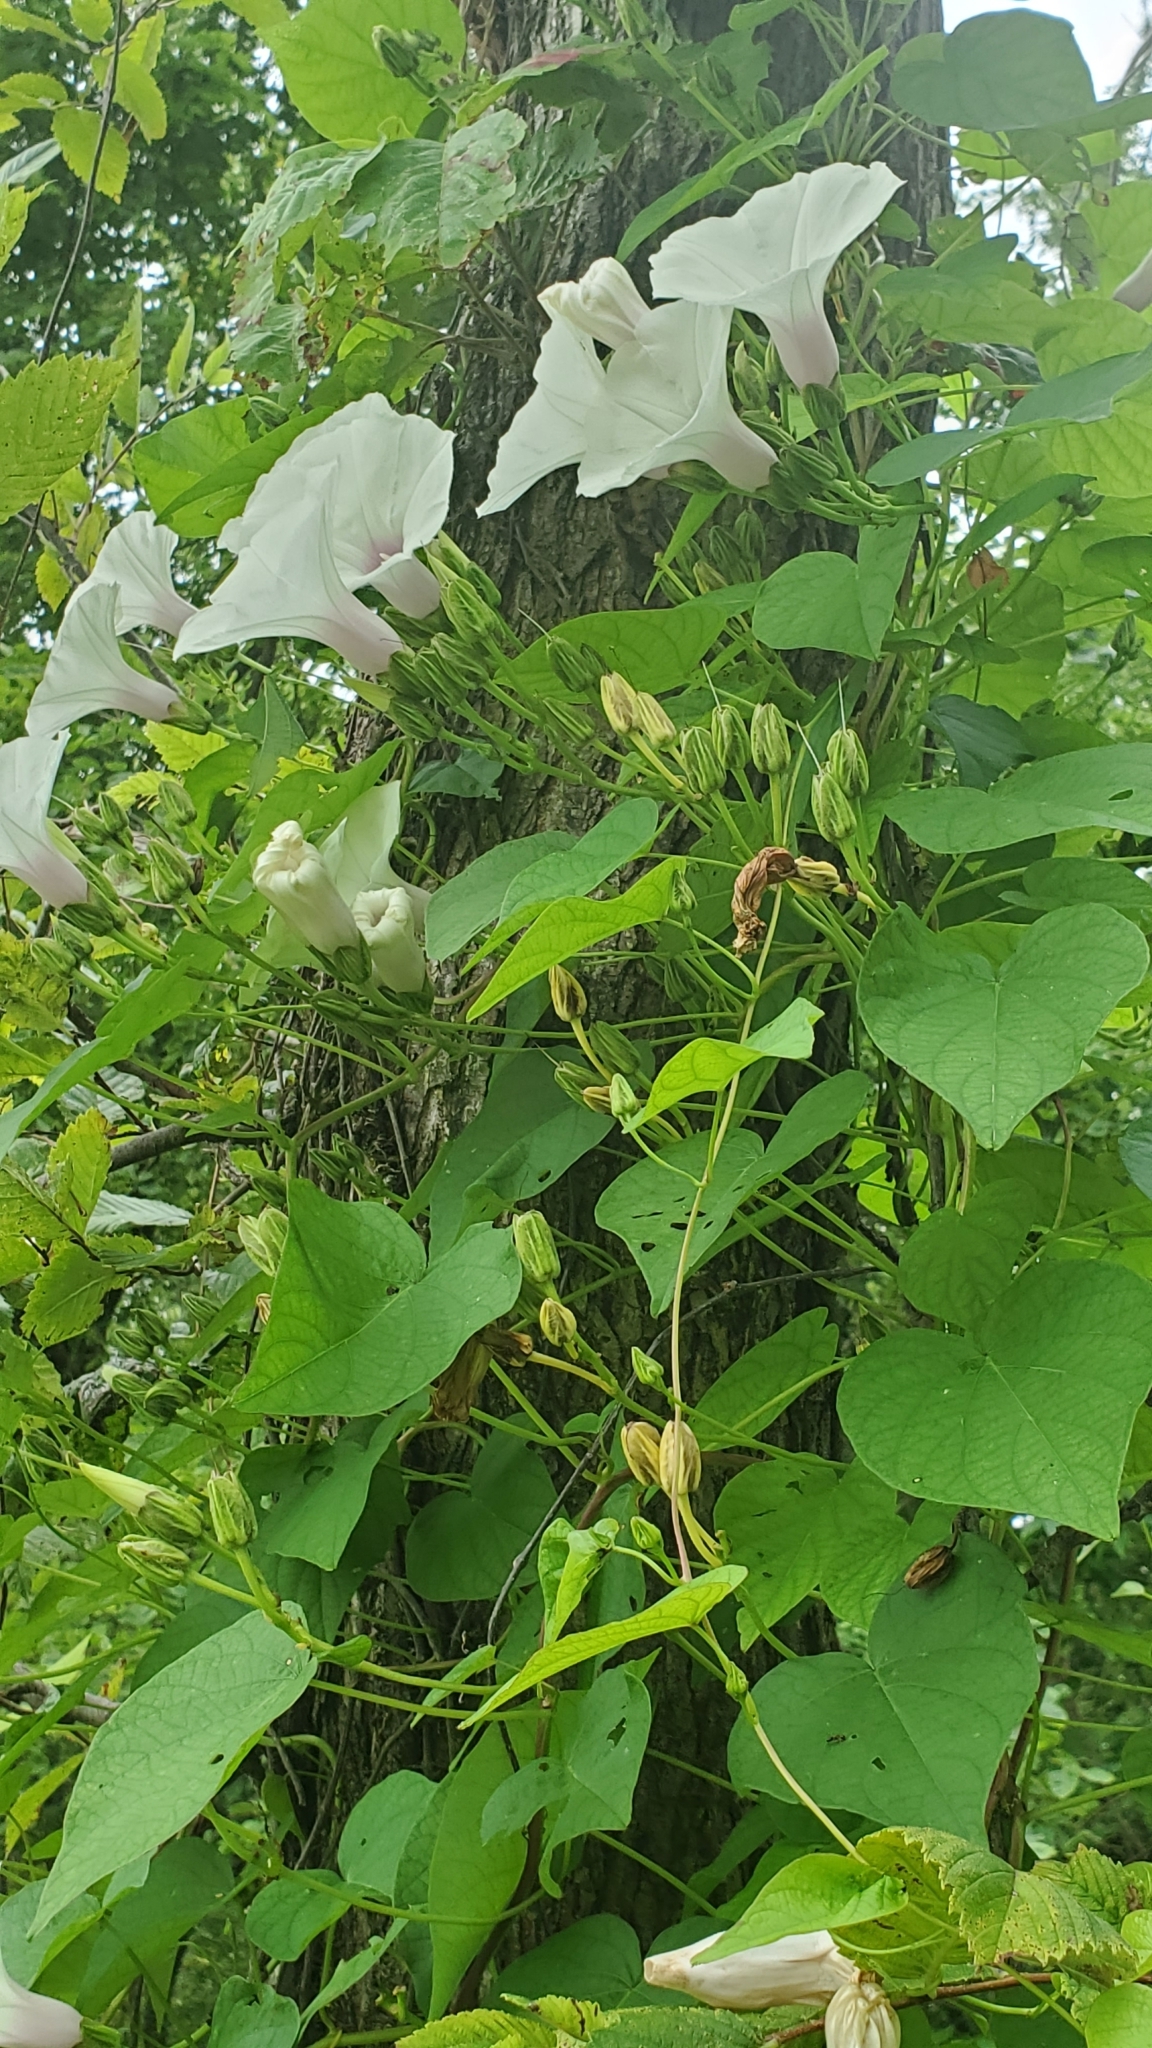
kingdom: Plantae
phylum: Tracheophyta
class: Magnoliopsida
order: Solanales
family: Convolvulaceae
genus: Ipomoea
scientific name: Ipomoea pandurata
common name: Man-of-the-earth
